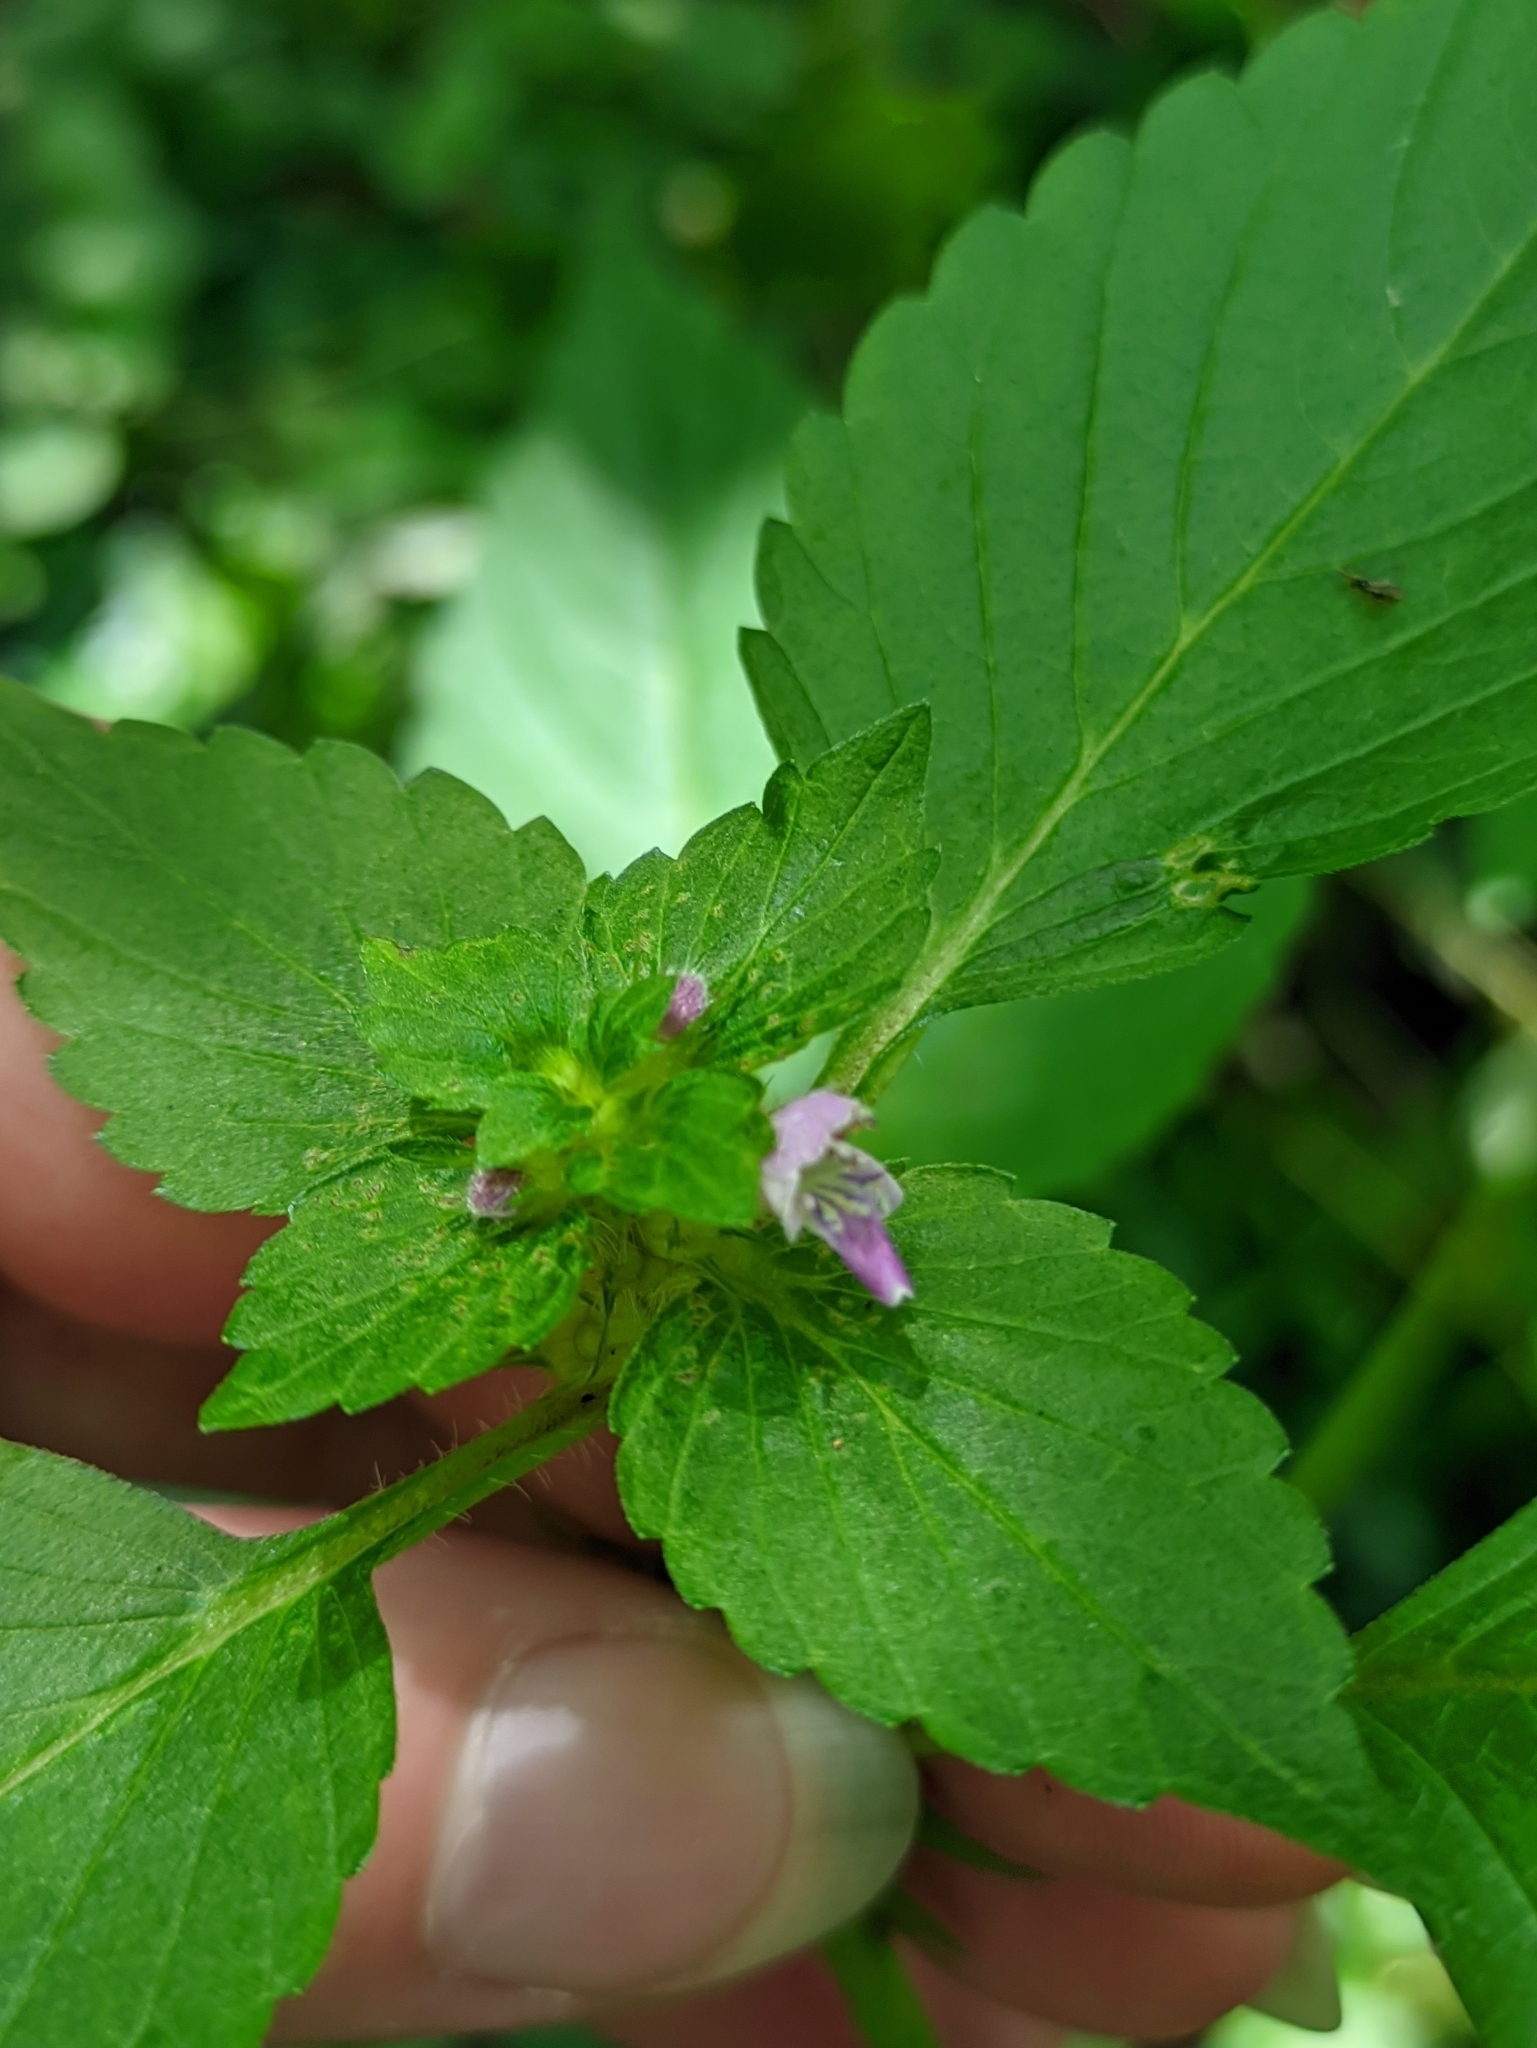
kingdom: Plantae
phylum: Tracheophyta
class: Magnoliopsida
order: Lamiales
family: Lamiaceae
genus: Galeopsis
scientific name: Galeopsis bifida
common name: Bifid hemp-nettle
